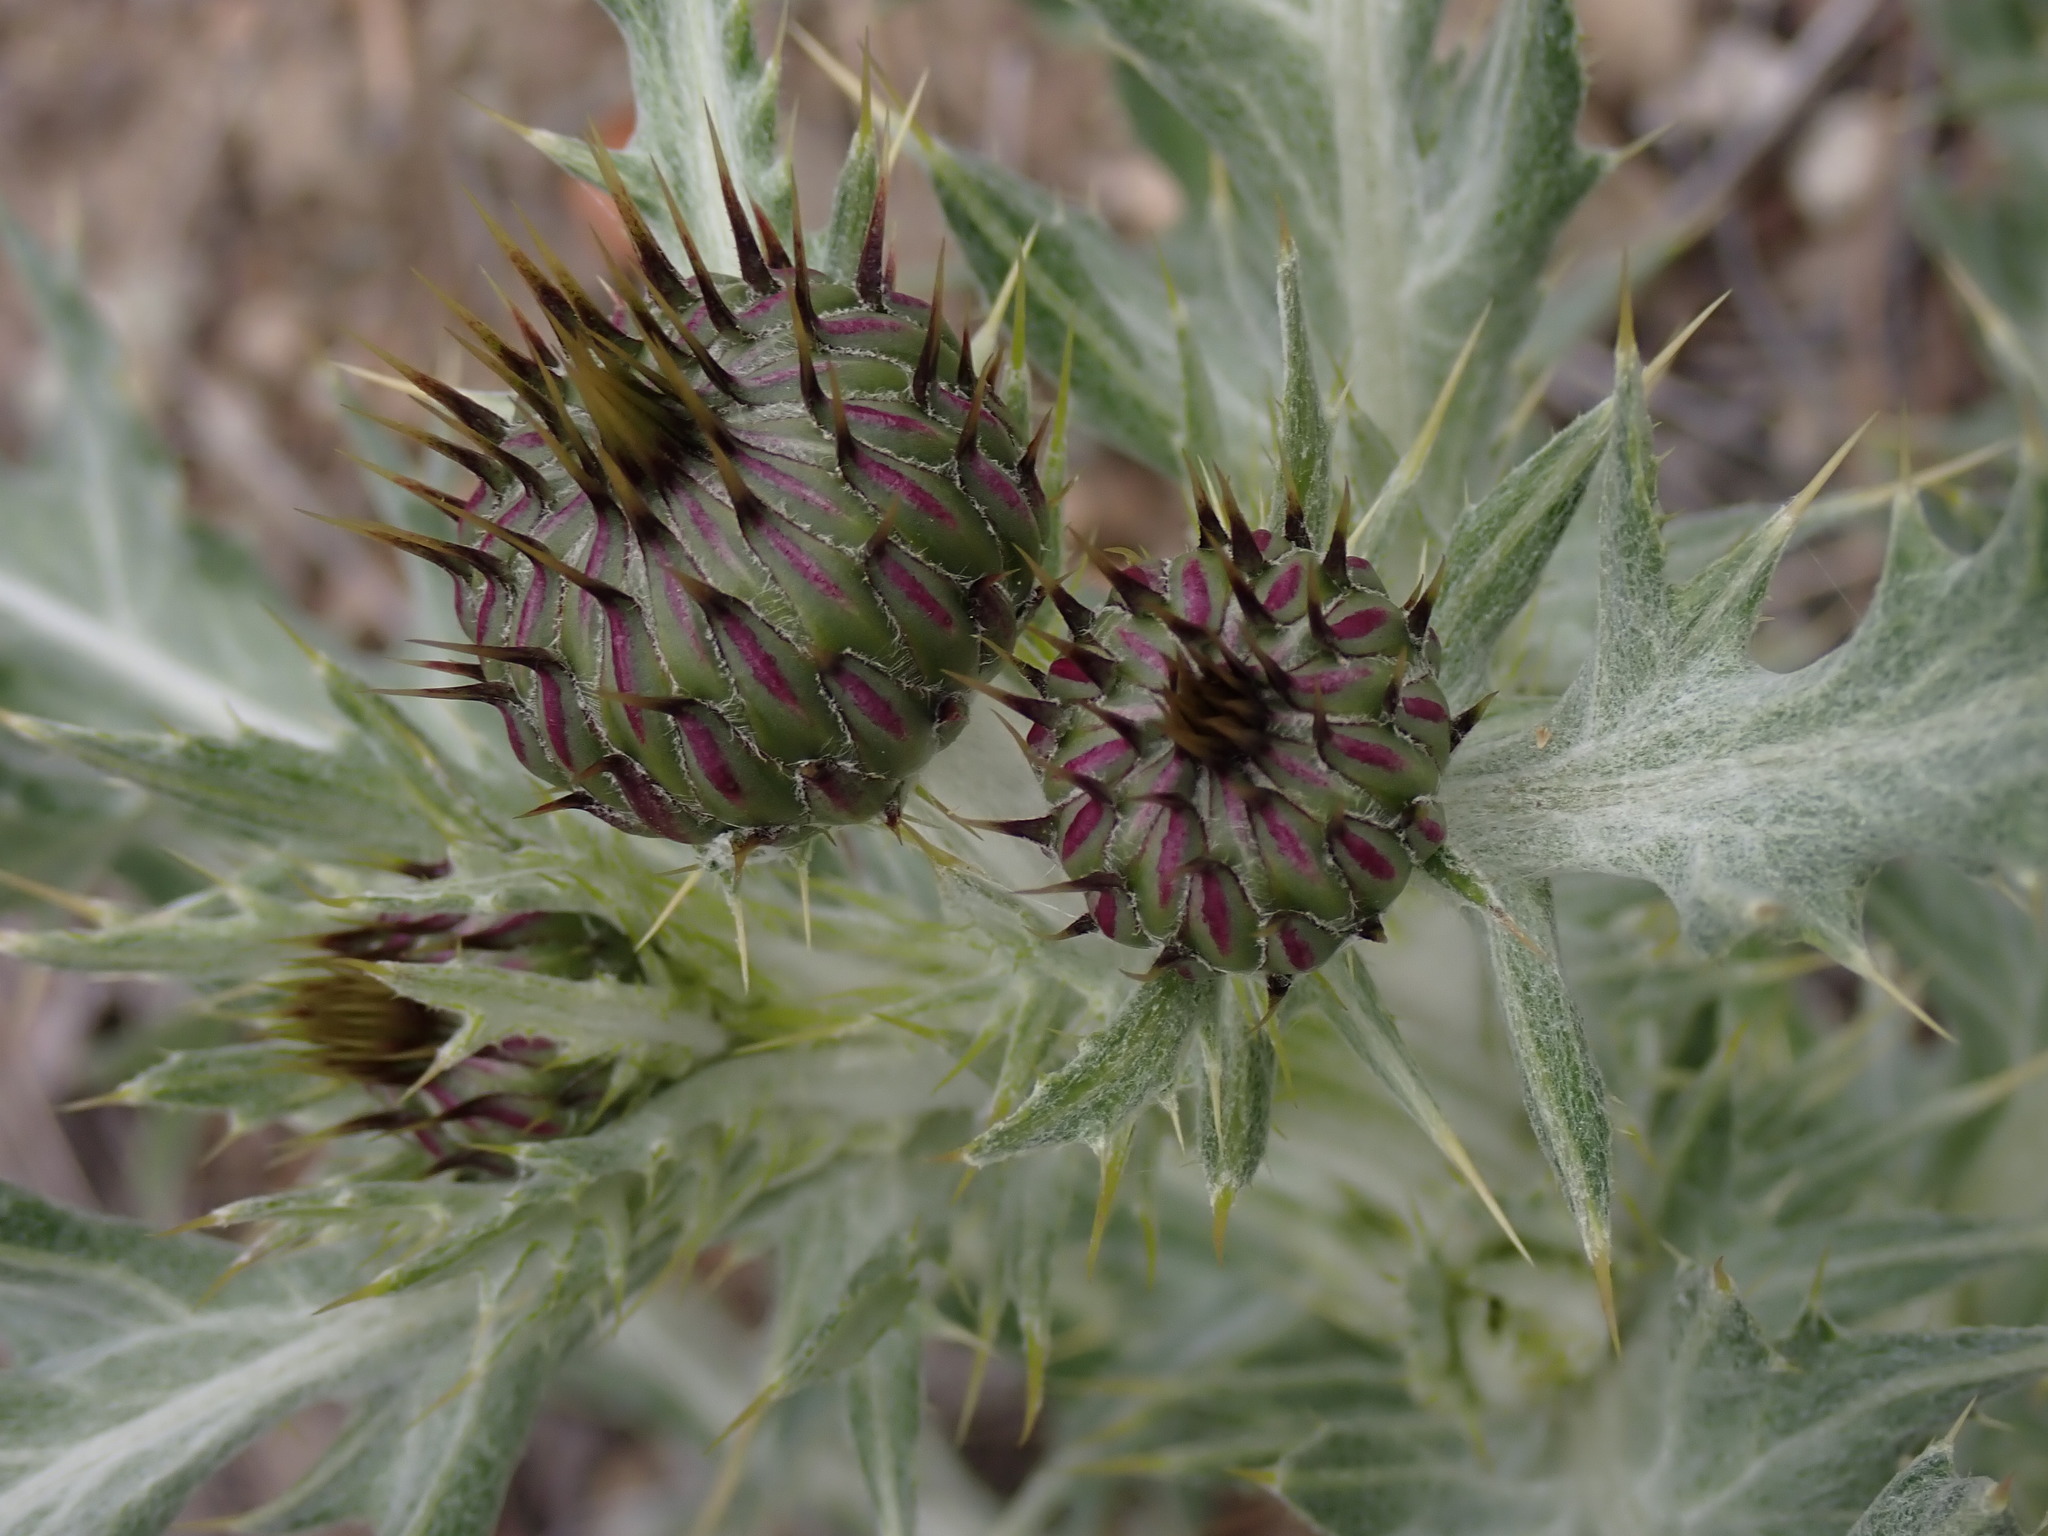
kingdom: Plantae
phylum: Tracheophyta
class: Magnoliopsida
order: Asterales
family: Asteraceae
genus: Cirsium
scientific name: Cirsium undulatum
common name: Pasture thistle
